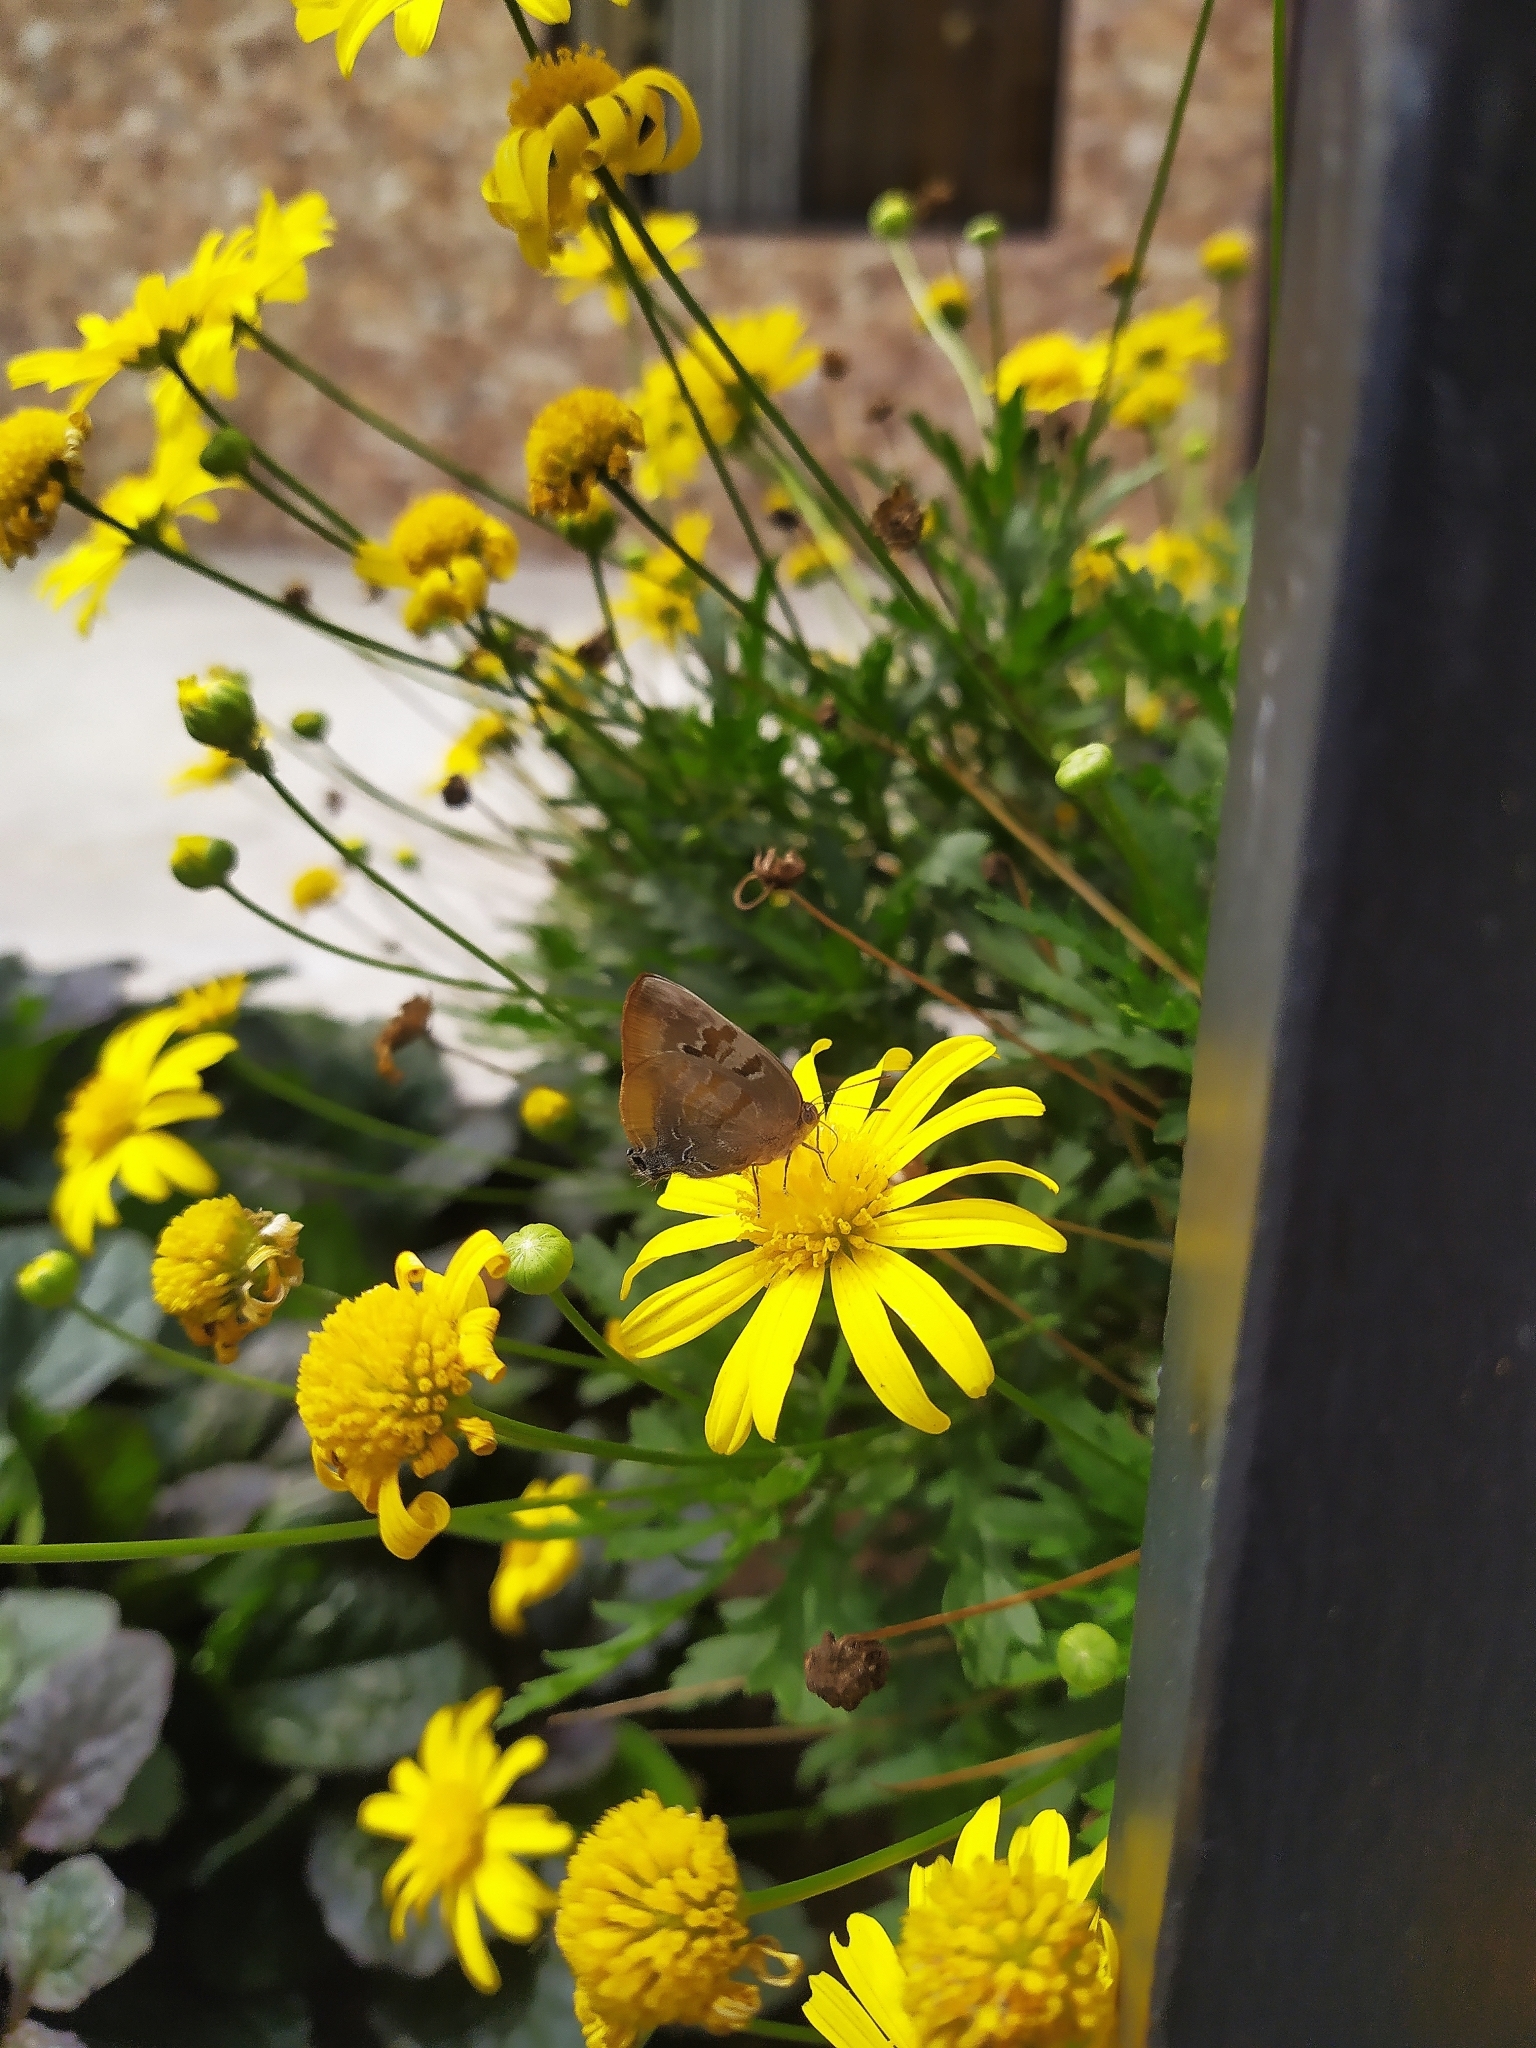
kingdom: Animalia
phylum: Arthropoda
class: Insecta
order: Lepidoptera
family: Lycaenidae
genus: Rekoa
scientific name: Rekoa palegon
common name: Gold-bordered hairstreak
